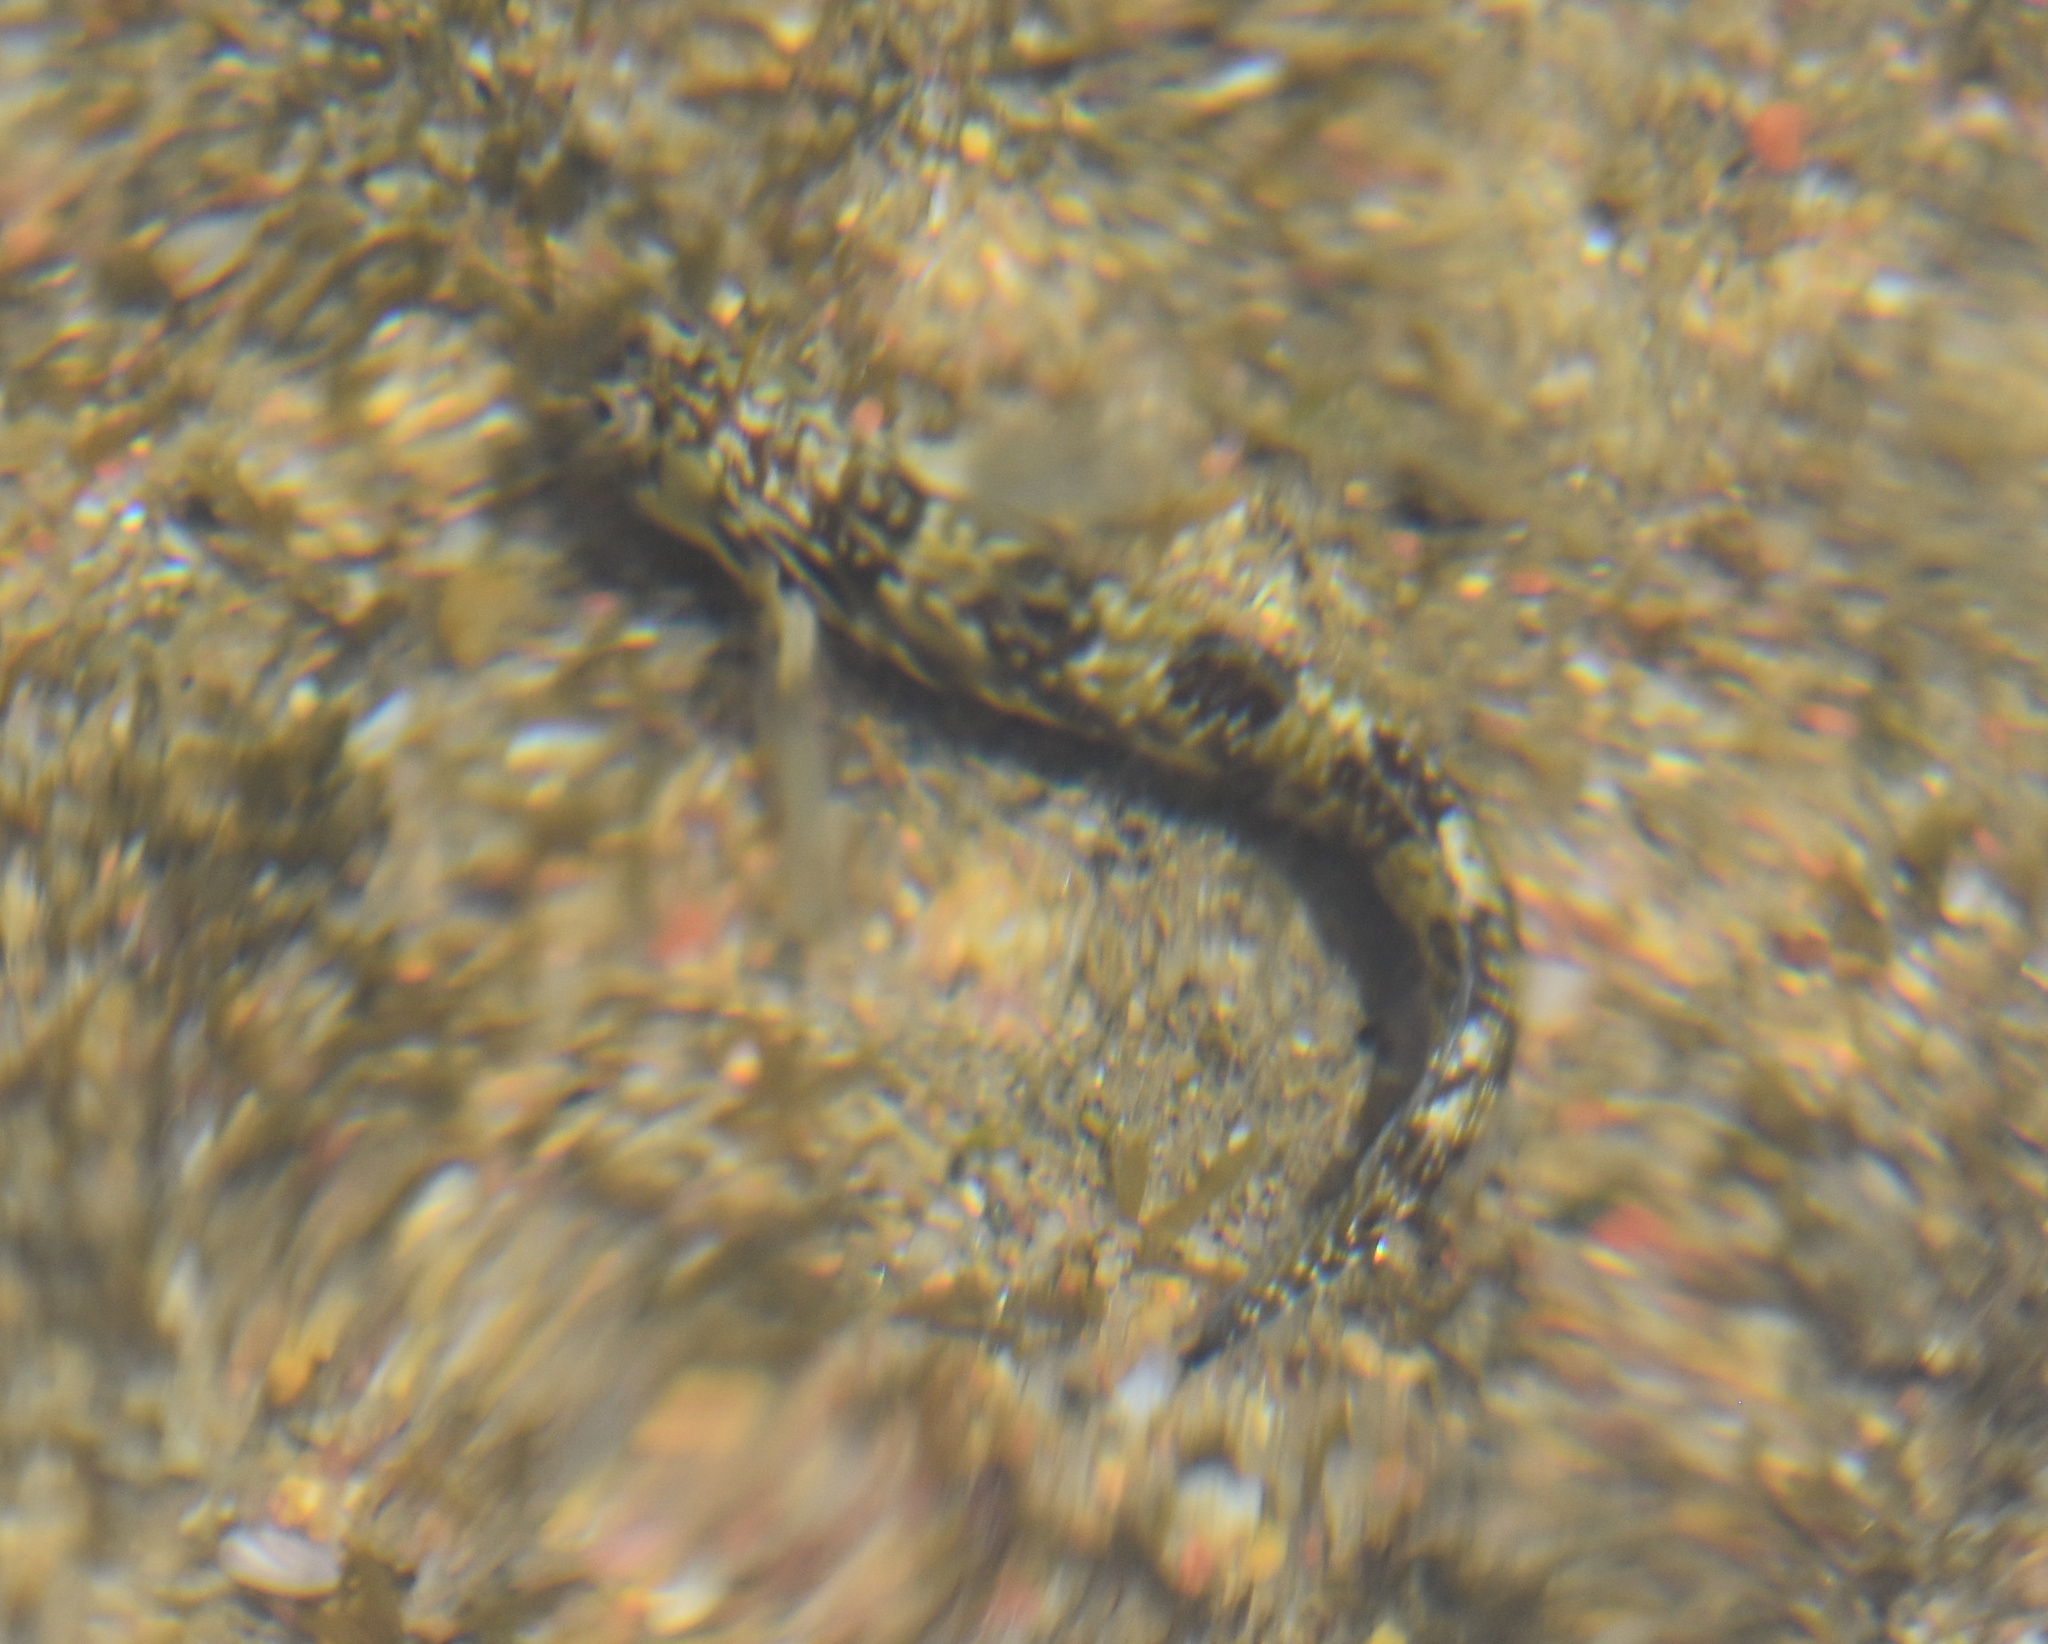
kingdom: Animalia
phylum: Chordata
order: Perciformes
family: Blenniidae
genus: Antennablennius
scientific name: Antennablennius bifilum
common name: Horned rockskipper
